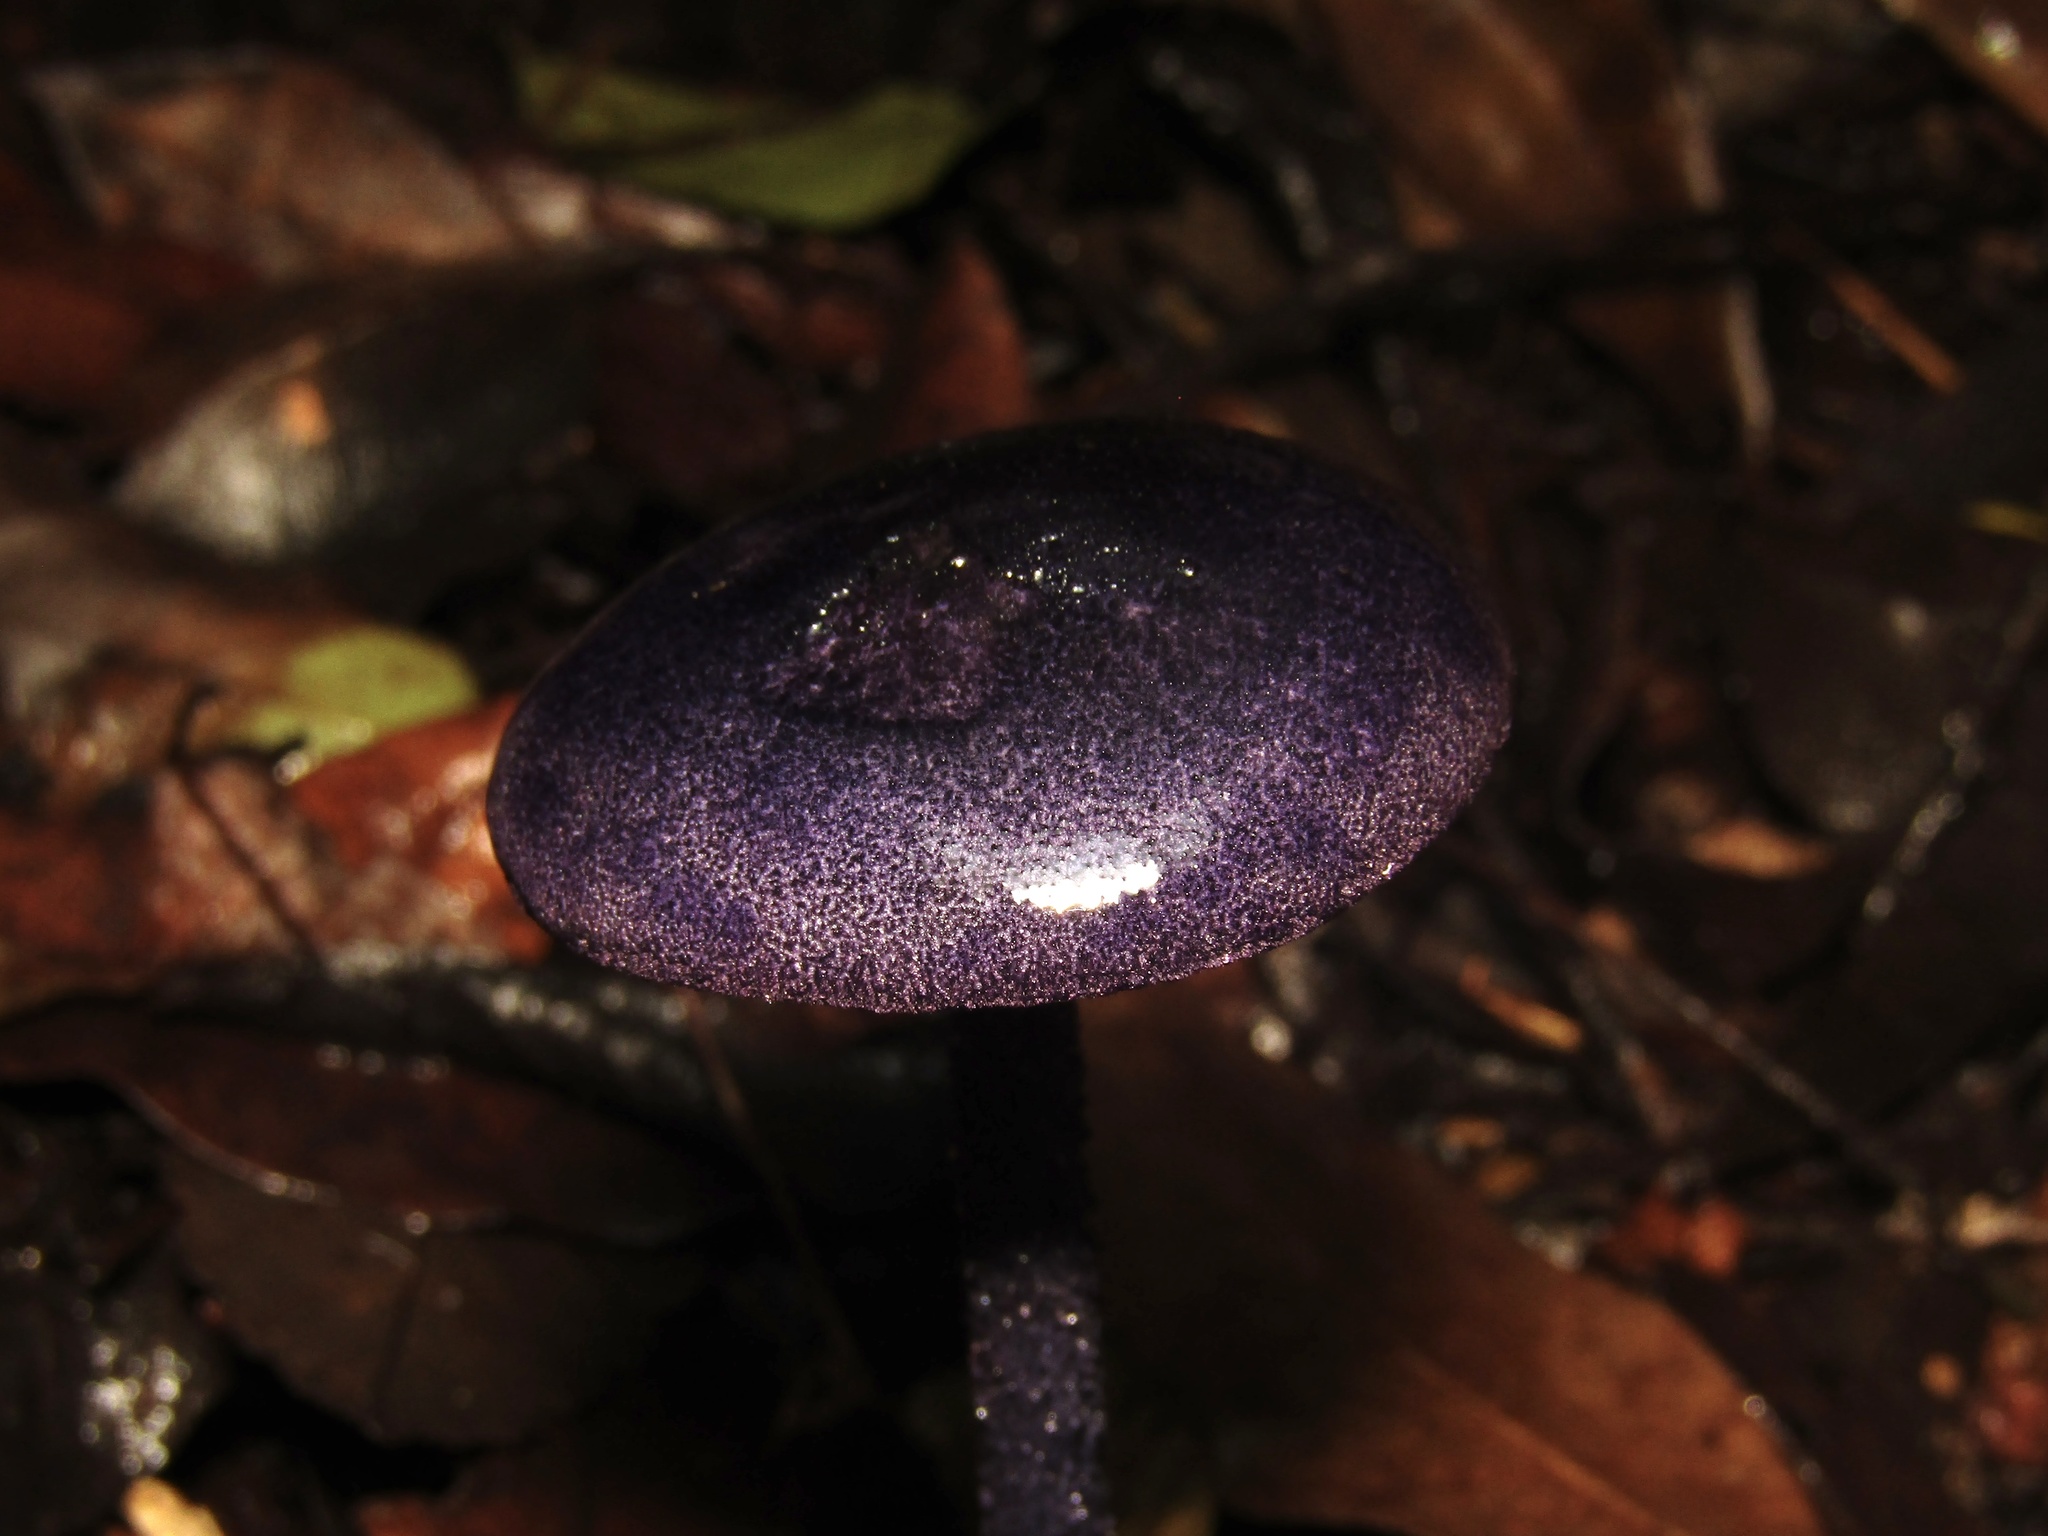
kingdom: Fungi
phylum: Basidiomycota
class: Agaricomycetes
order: Agaricales
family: Entolomataceae
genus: Entoloma
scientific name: Entoloma panniculus
